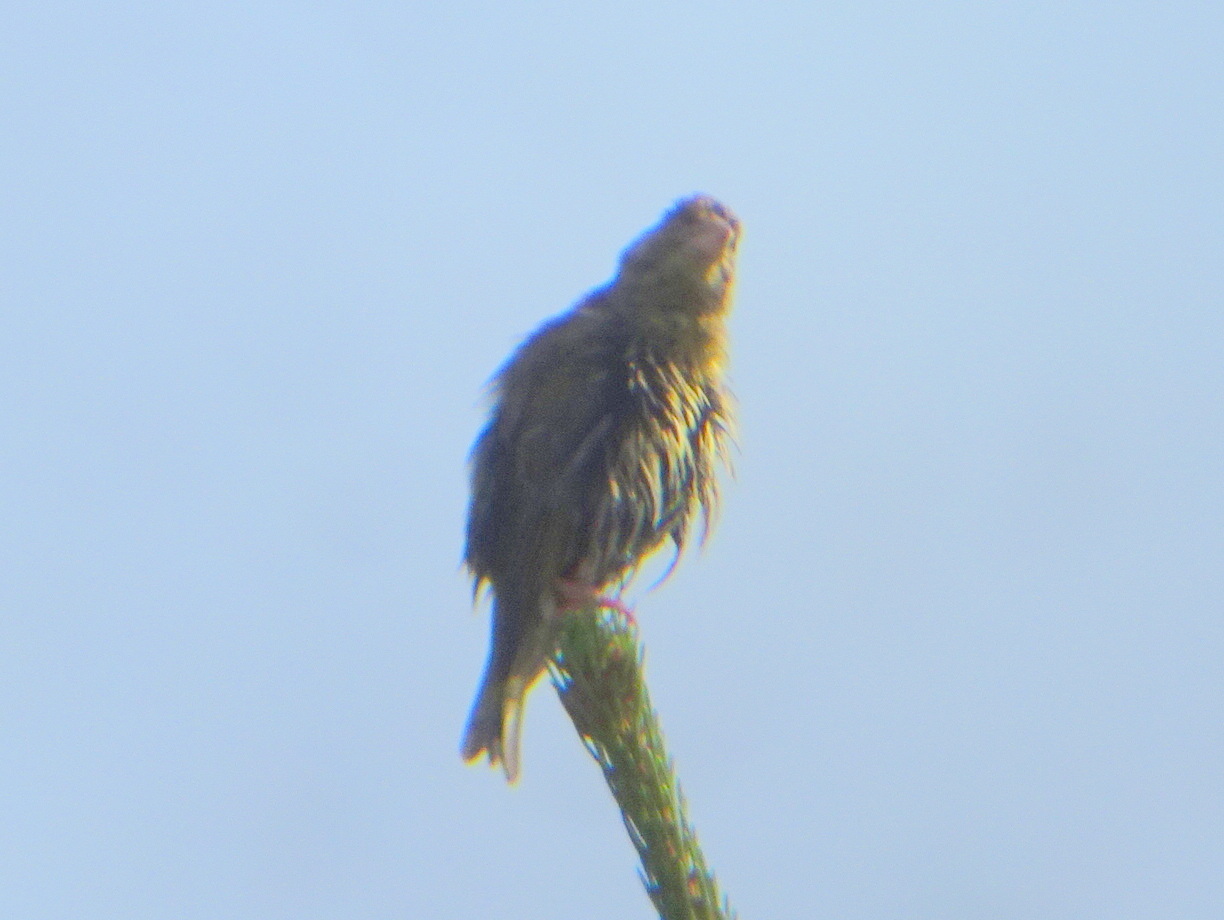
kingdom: Plantae
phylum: Tracheophyta
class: Liliopsida
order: Poales
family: Poaceae
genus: Chloris
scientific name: Chloris chloris
